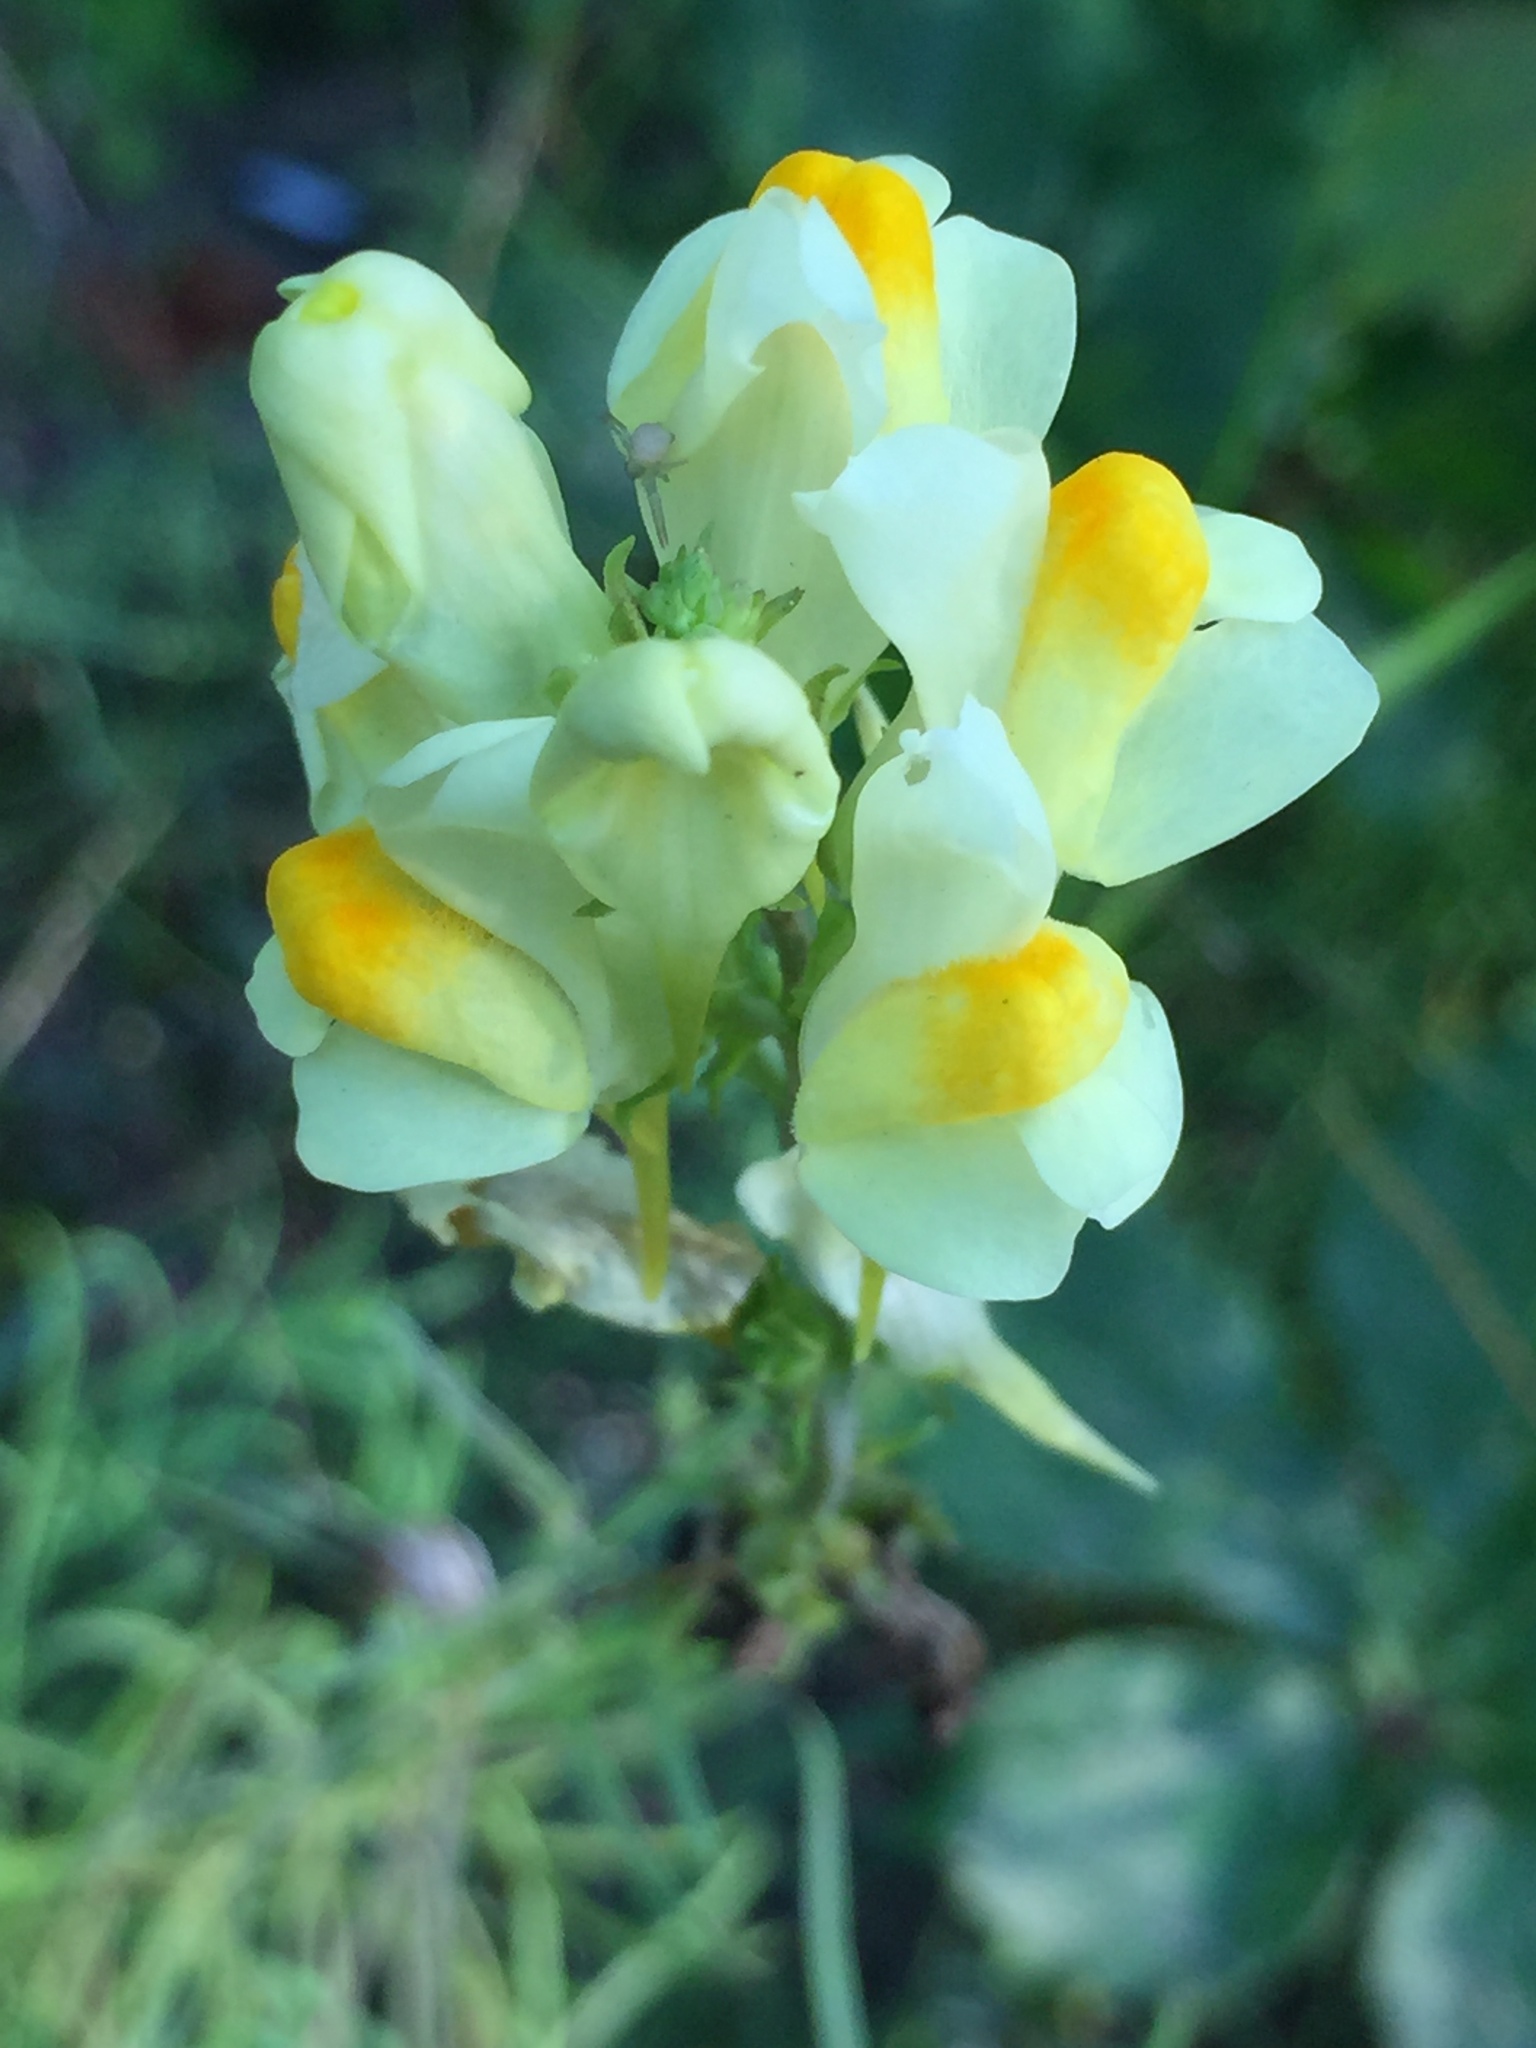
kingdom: Plantae
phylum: Tracheophyta
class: Magnoliopsida
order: Lamiales
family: Plantaginaceae
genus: Linaria
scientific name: Linaria vulgaris
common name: Butter and eggs
